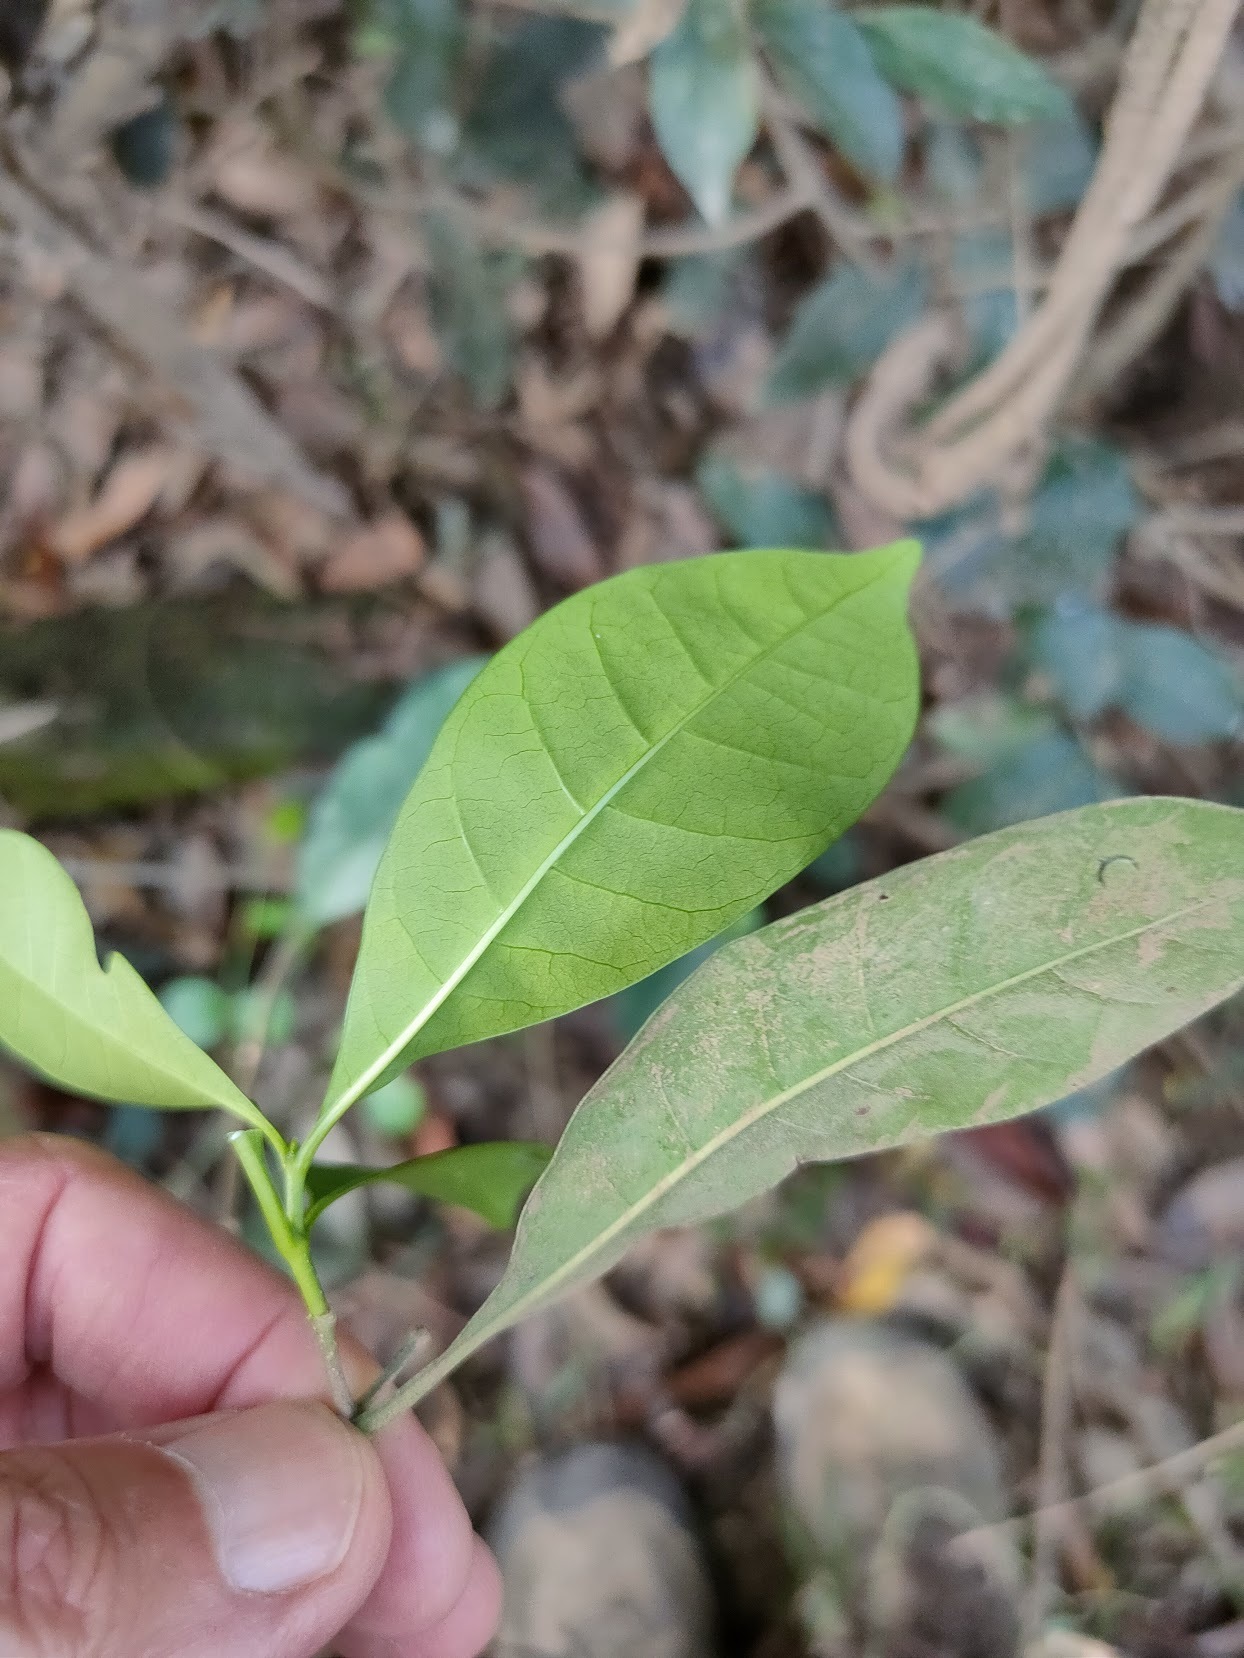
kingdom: Plantae
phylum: Tracheophyta
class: Magnoliopsida
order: Gentianales
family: Apocynaceae
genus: Tabernaemontana
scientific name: Tabernaemontana pandacaqui
